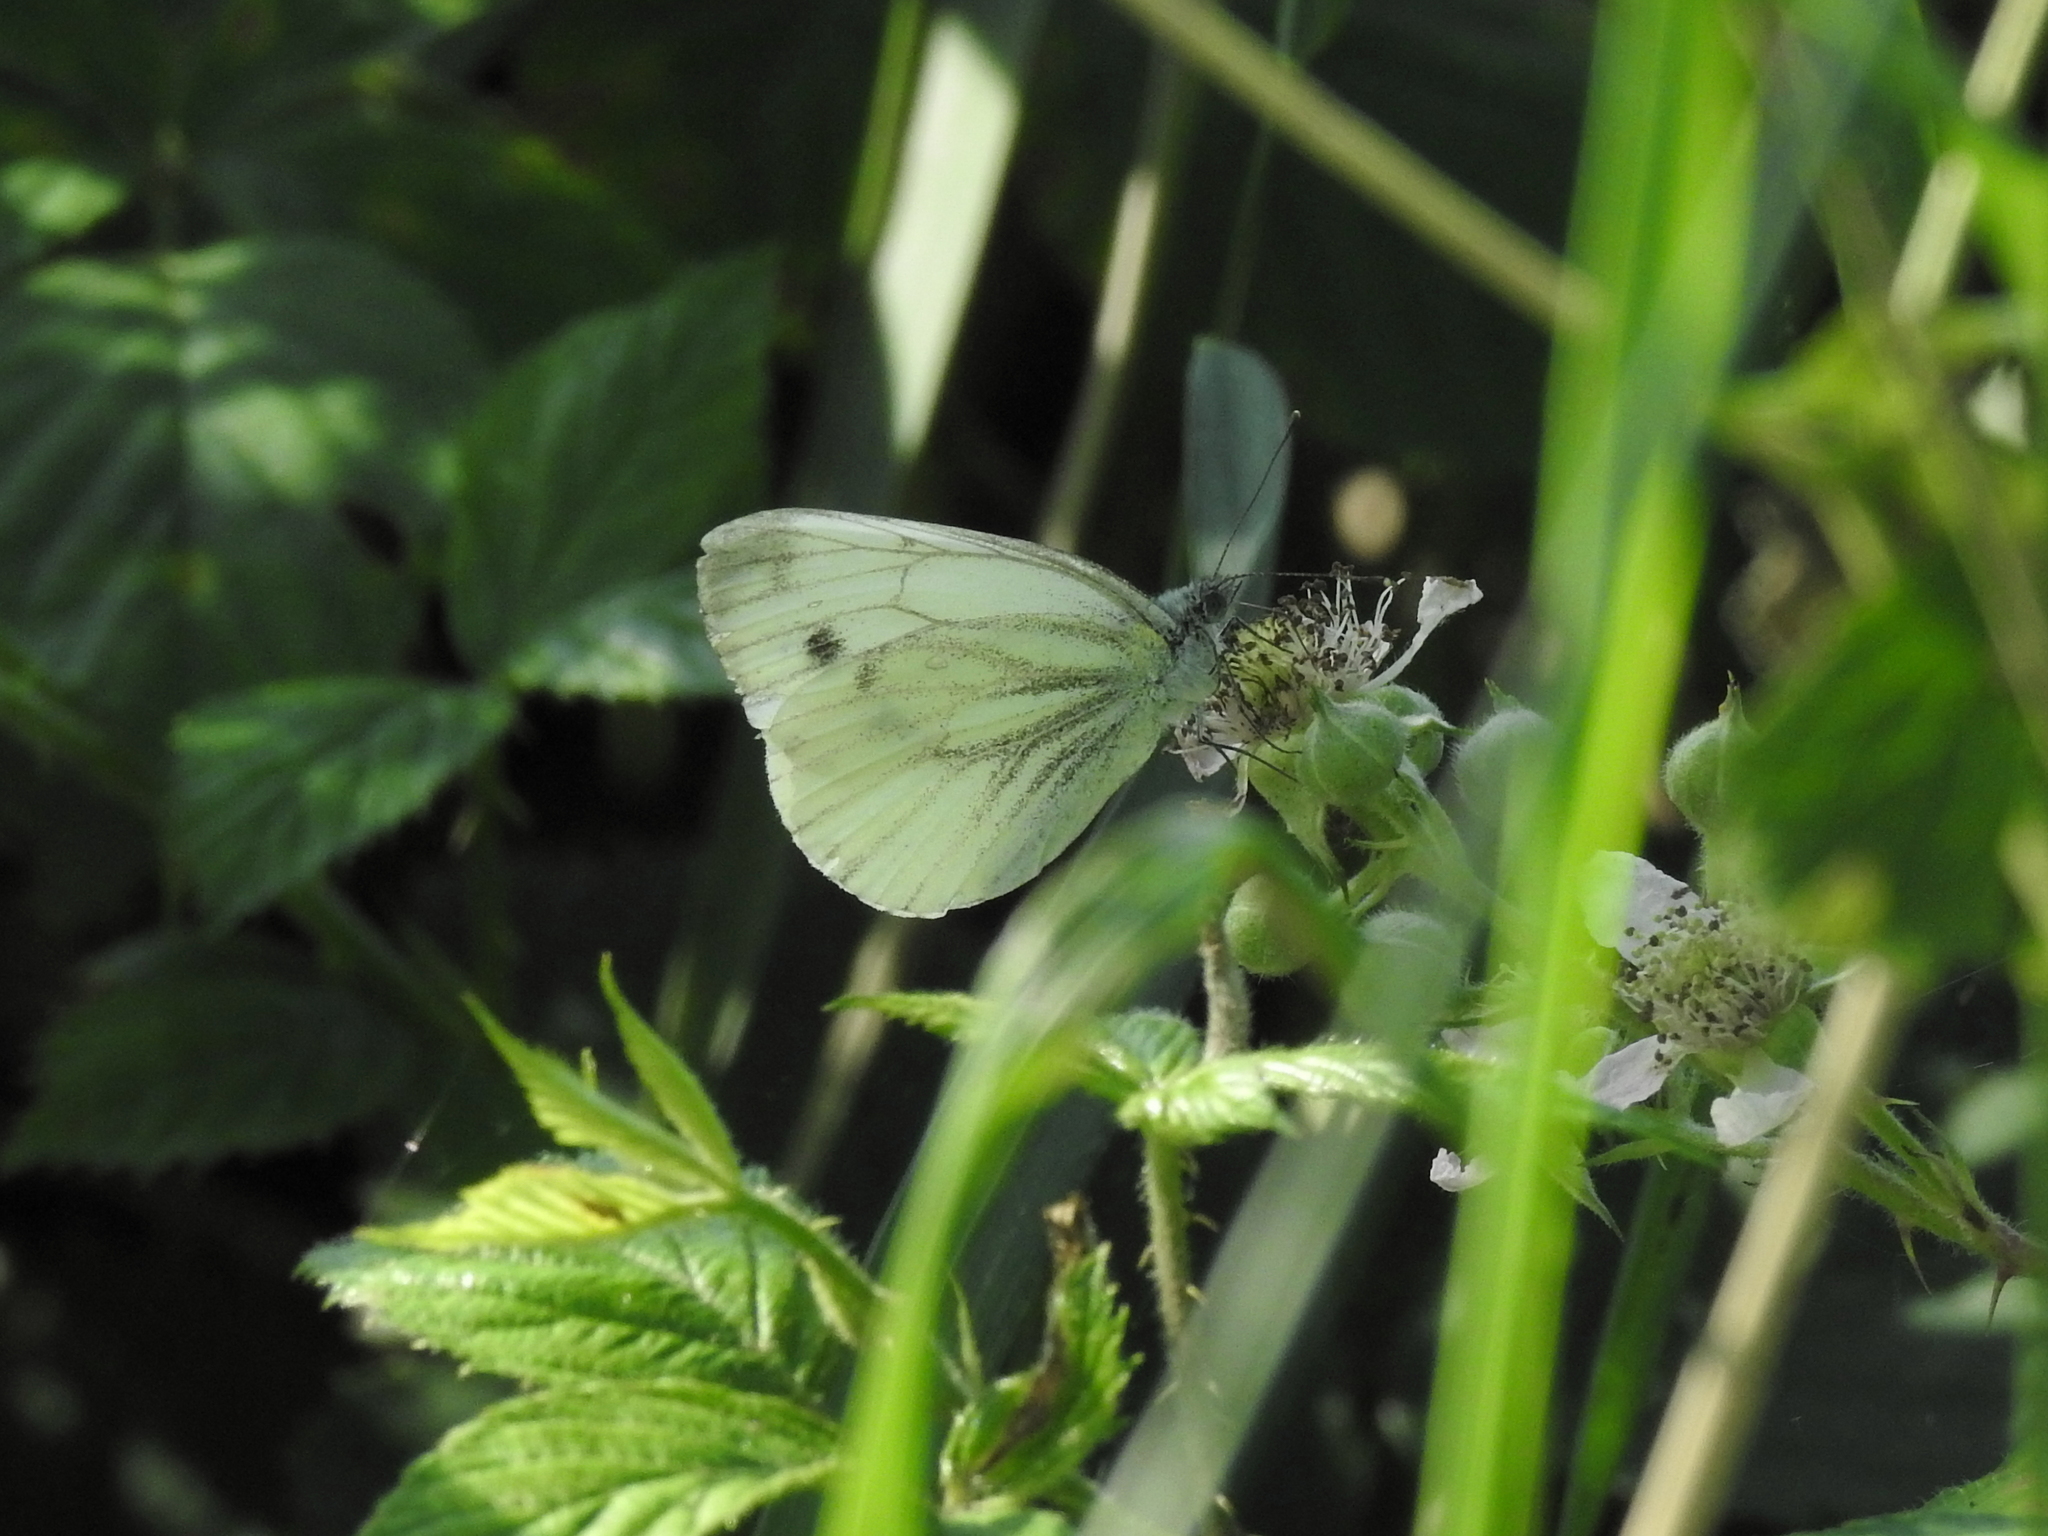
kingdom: Animalia
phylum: Arthropoda
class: Insecta
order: Lepidoptera
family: Pieridae
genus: Pieris
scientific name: Pieris napi
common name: Green-veined white
